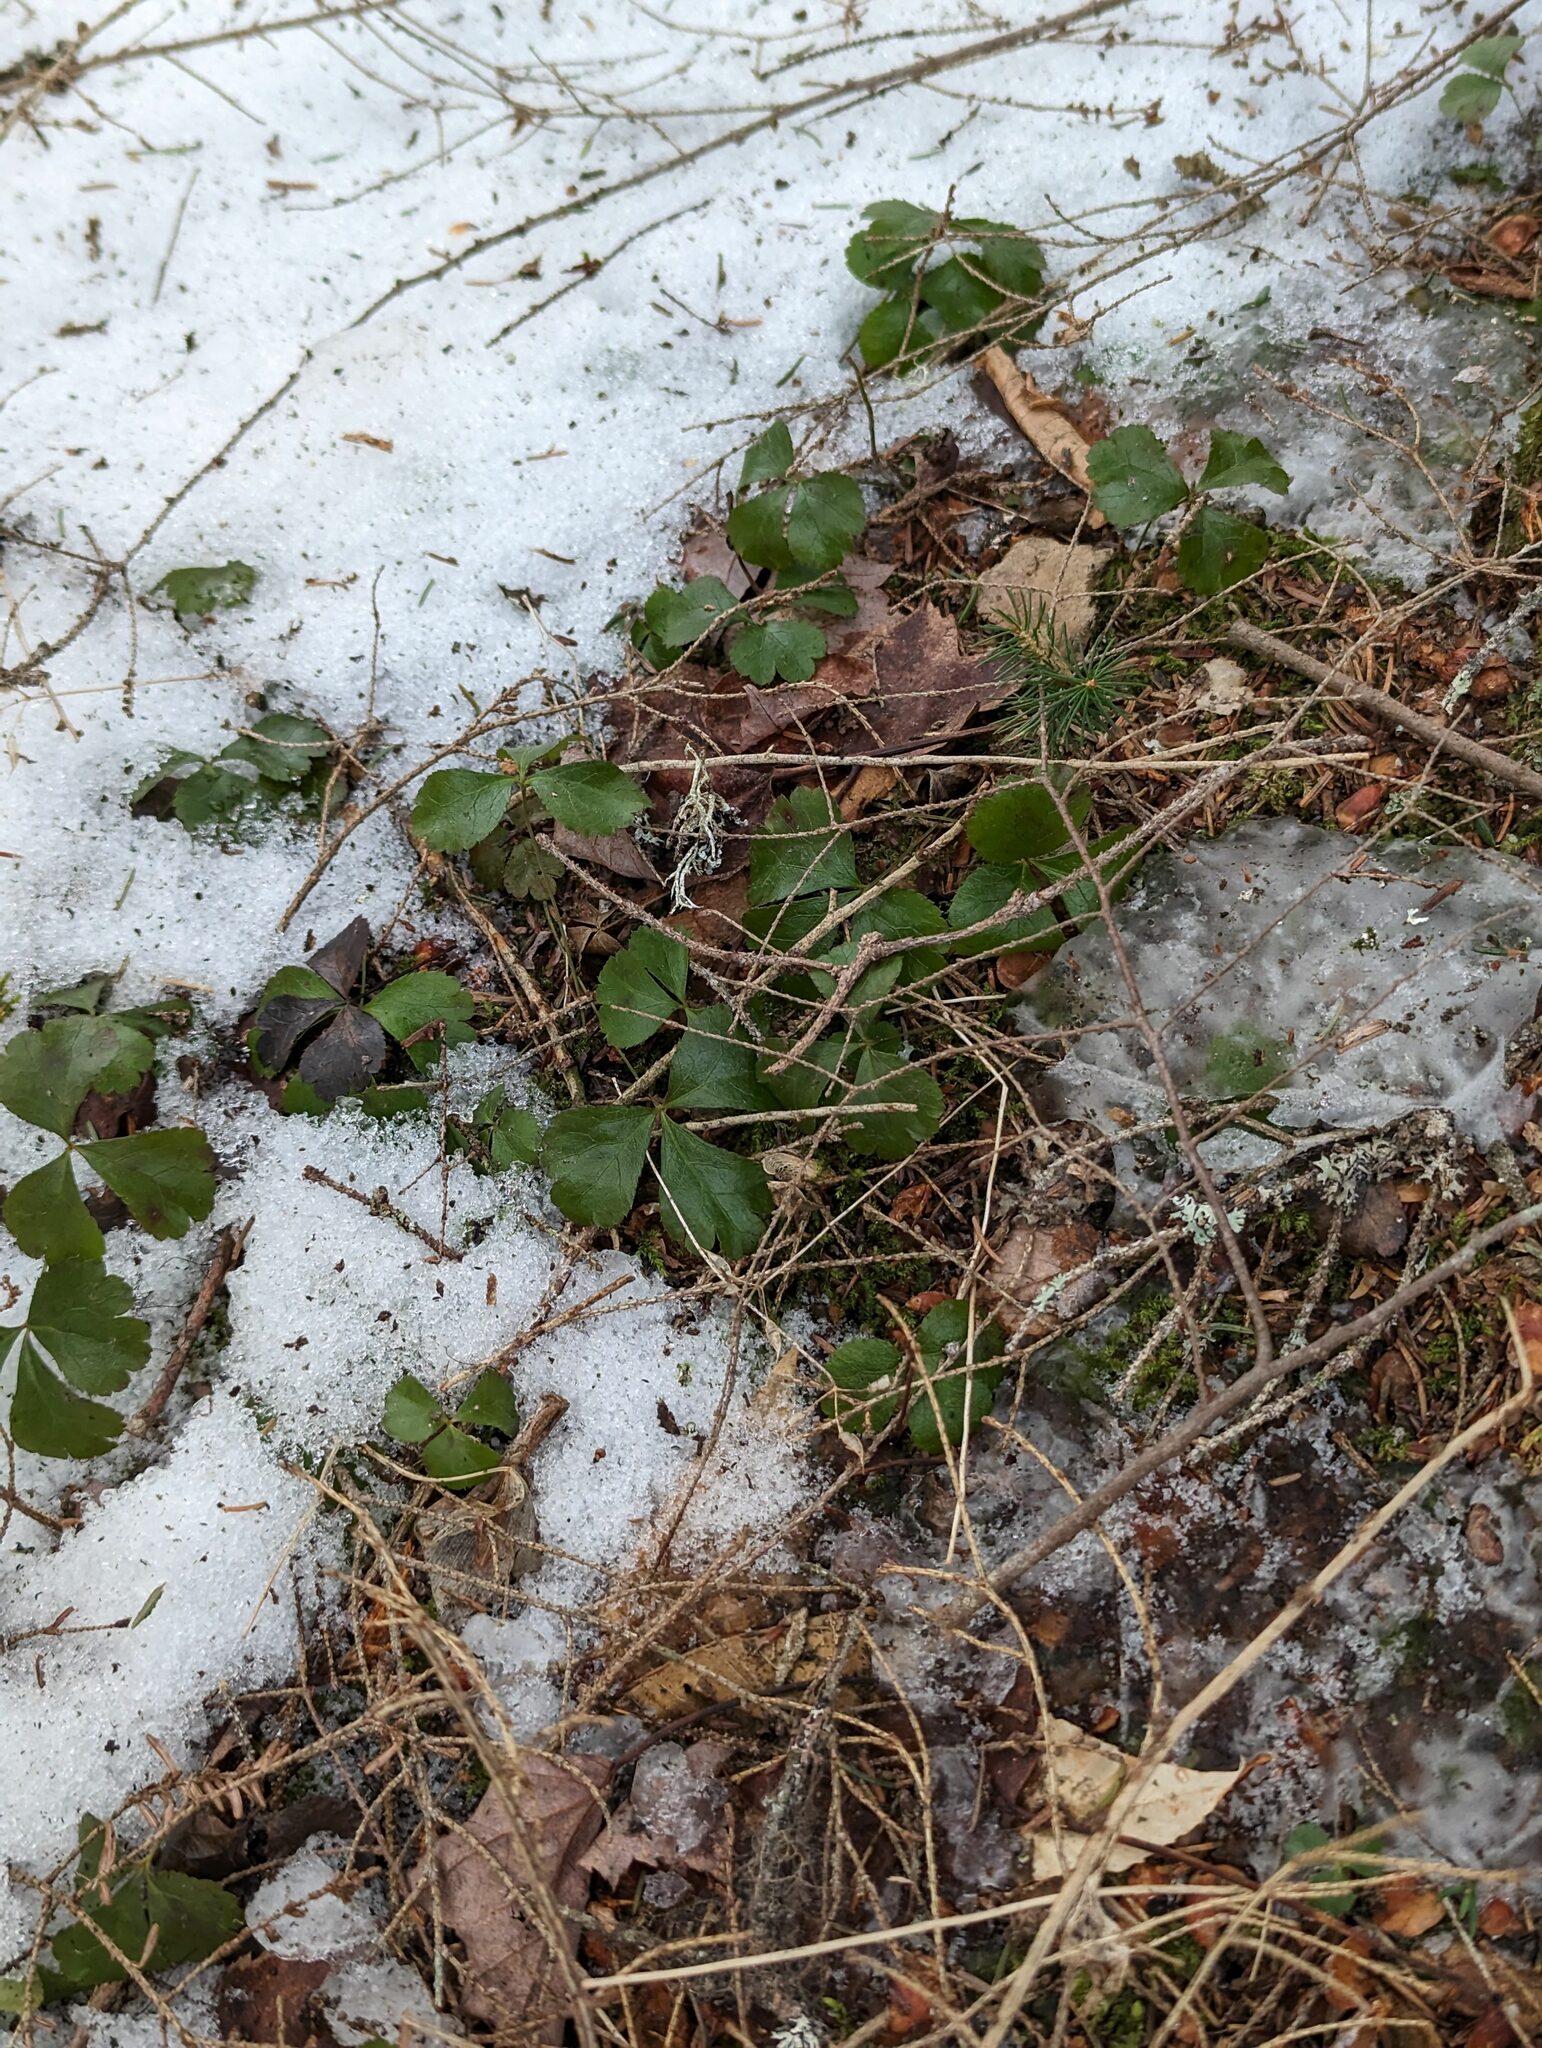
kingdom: Plantae
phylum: Tracheophyta
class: Magnoliopsida
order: Ranunculales
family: Ranunculaceae
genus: Coptis
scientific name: Coptis trifolia
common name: Canker-root
